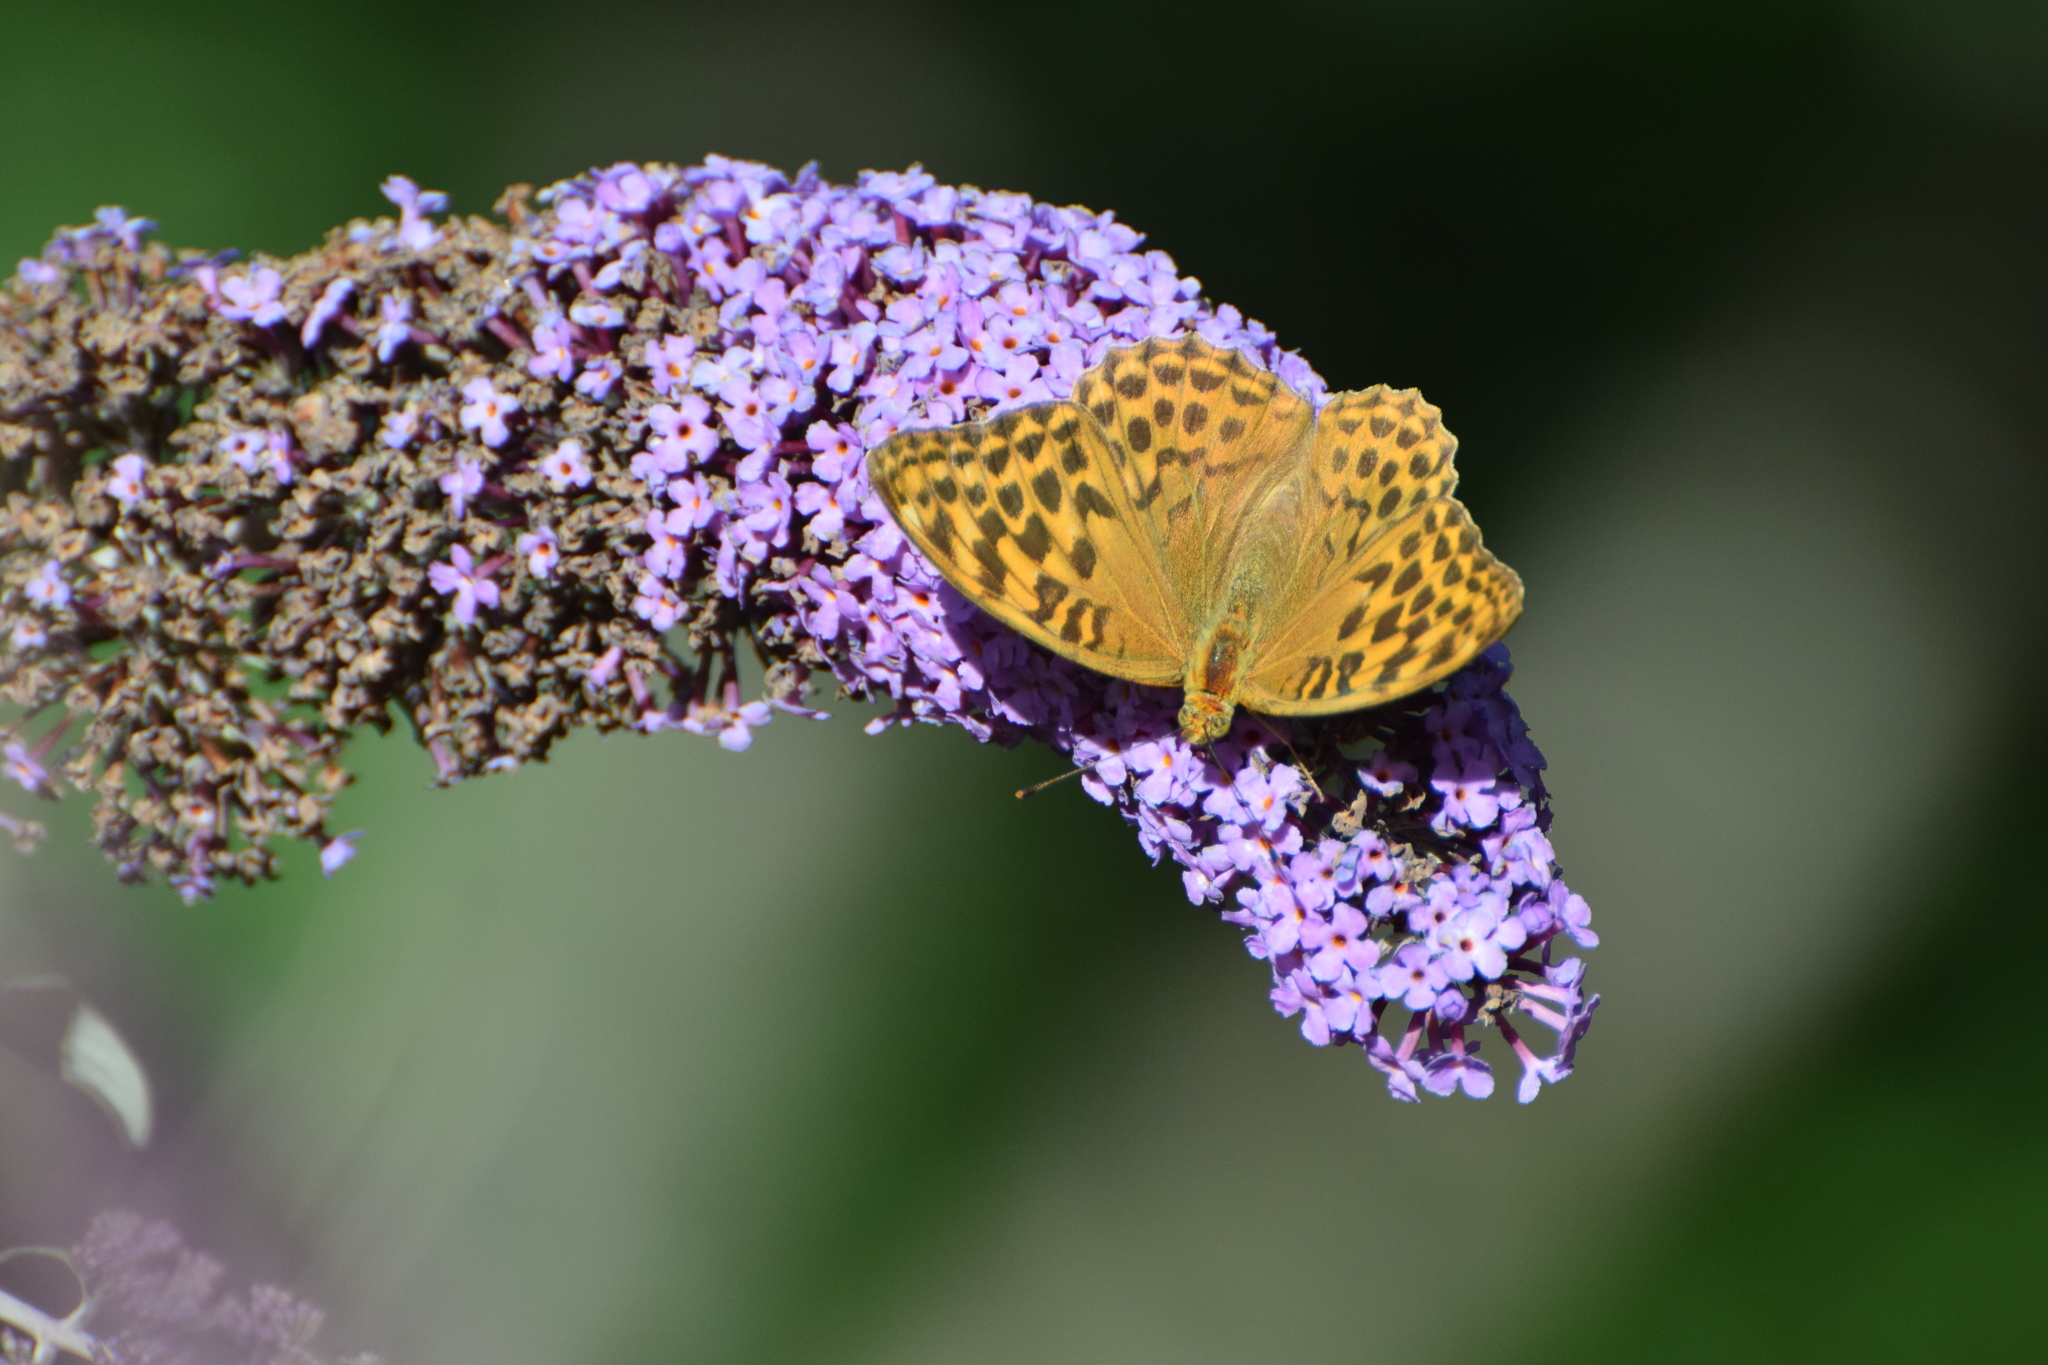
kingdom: Animalia
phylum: Arthropoda
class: Insecta
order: Lepidoptera
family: Nymphalidae
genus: Argynnis
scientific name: Argynnis paphia
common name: Silver-washed fritillary
